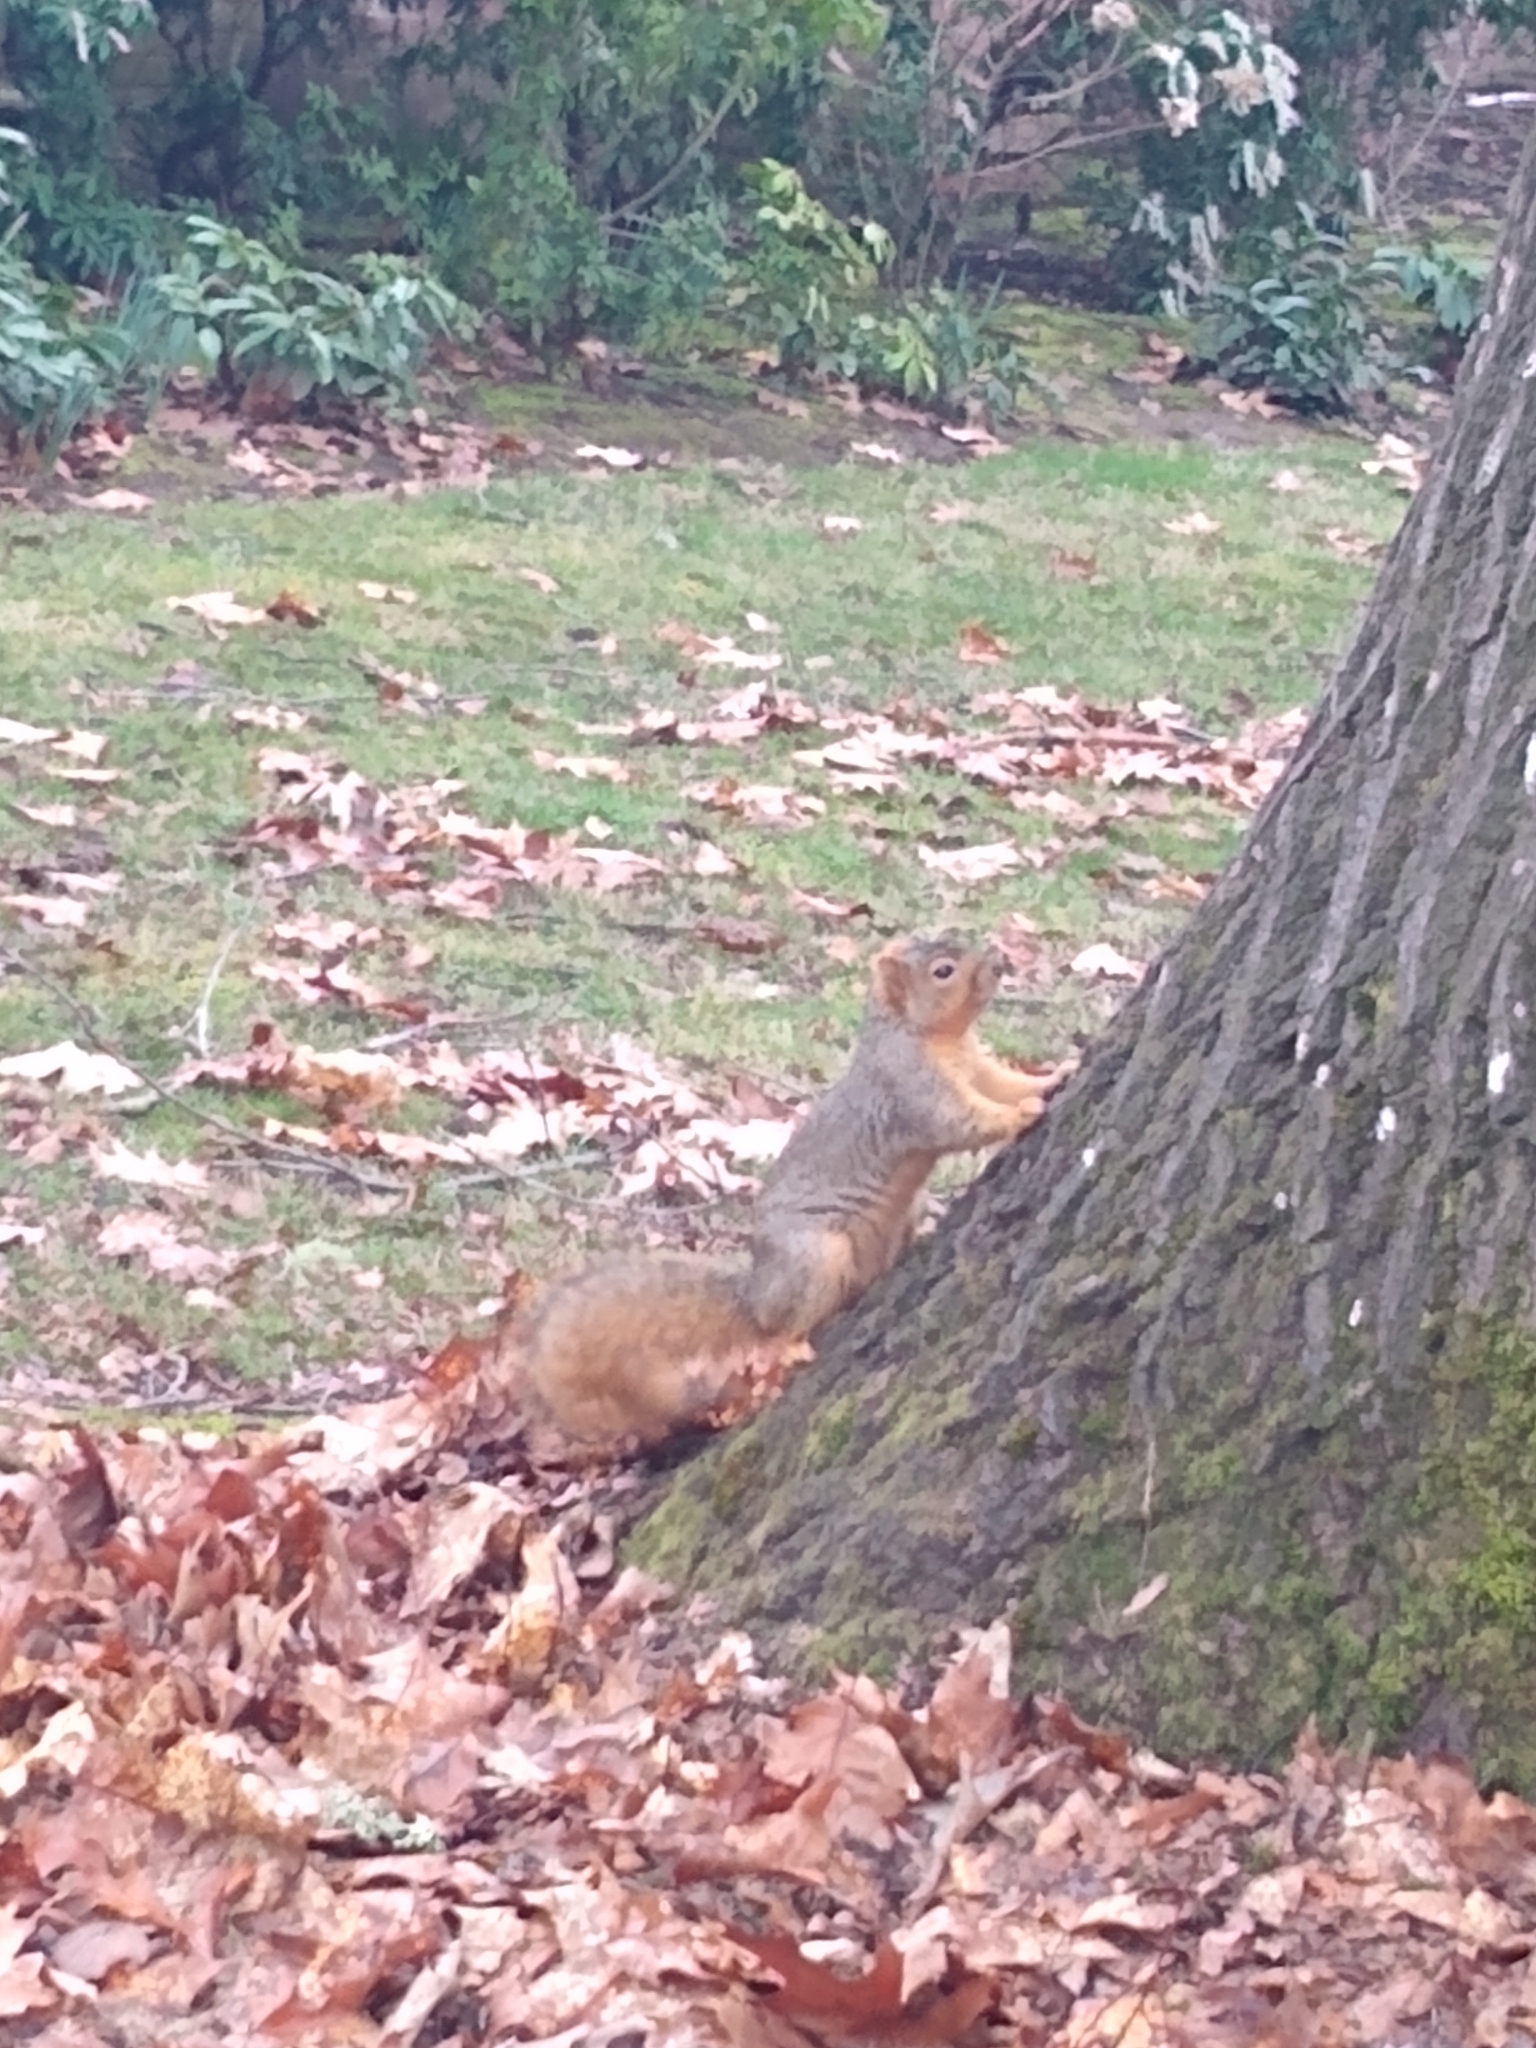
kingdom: Animalia
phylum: Chordata
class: Mammalia
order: Rodentia
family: Sciuridae
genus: Sciurus
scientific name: Sciurus niger
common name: Fox squirrel
